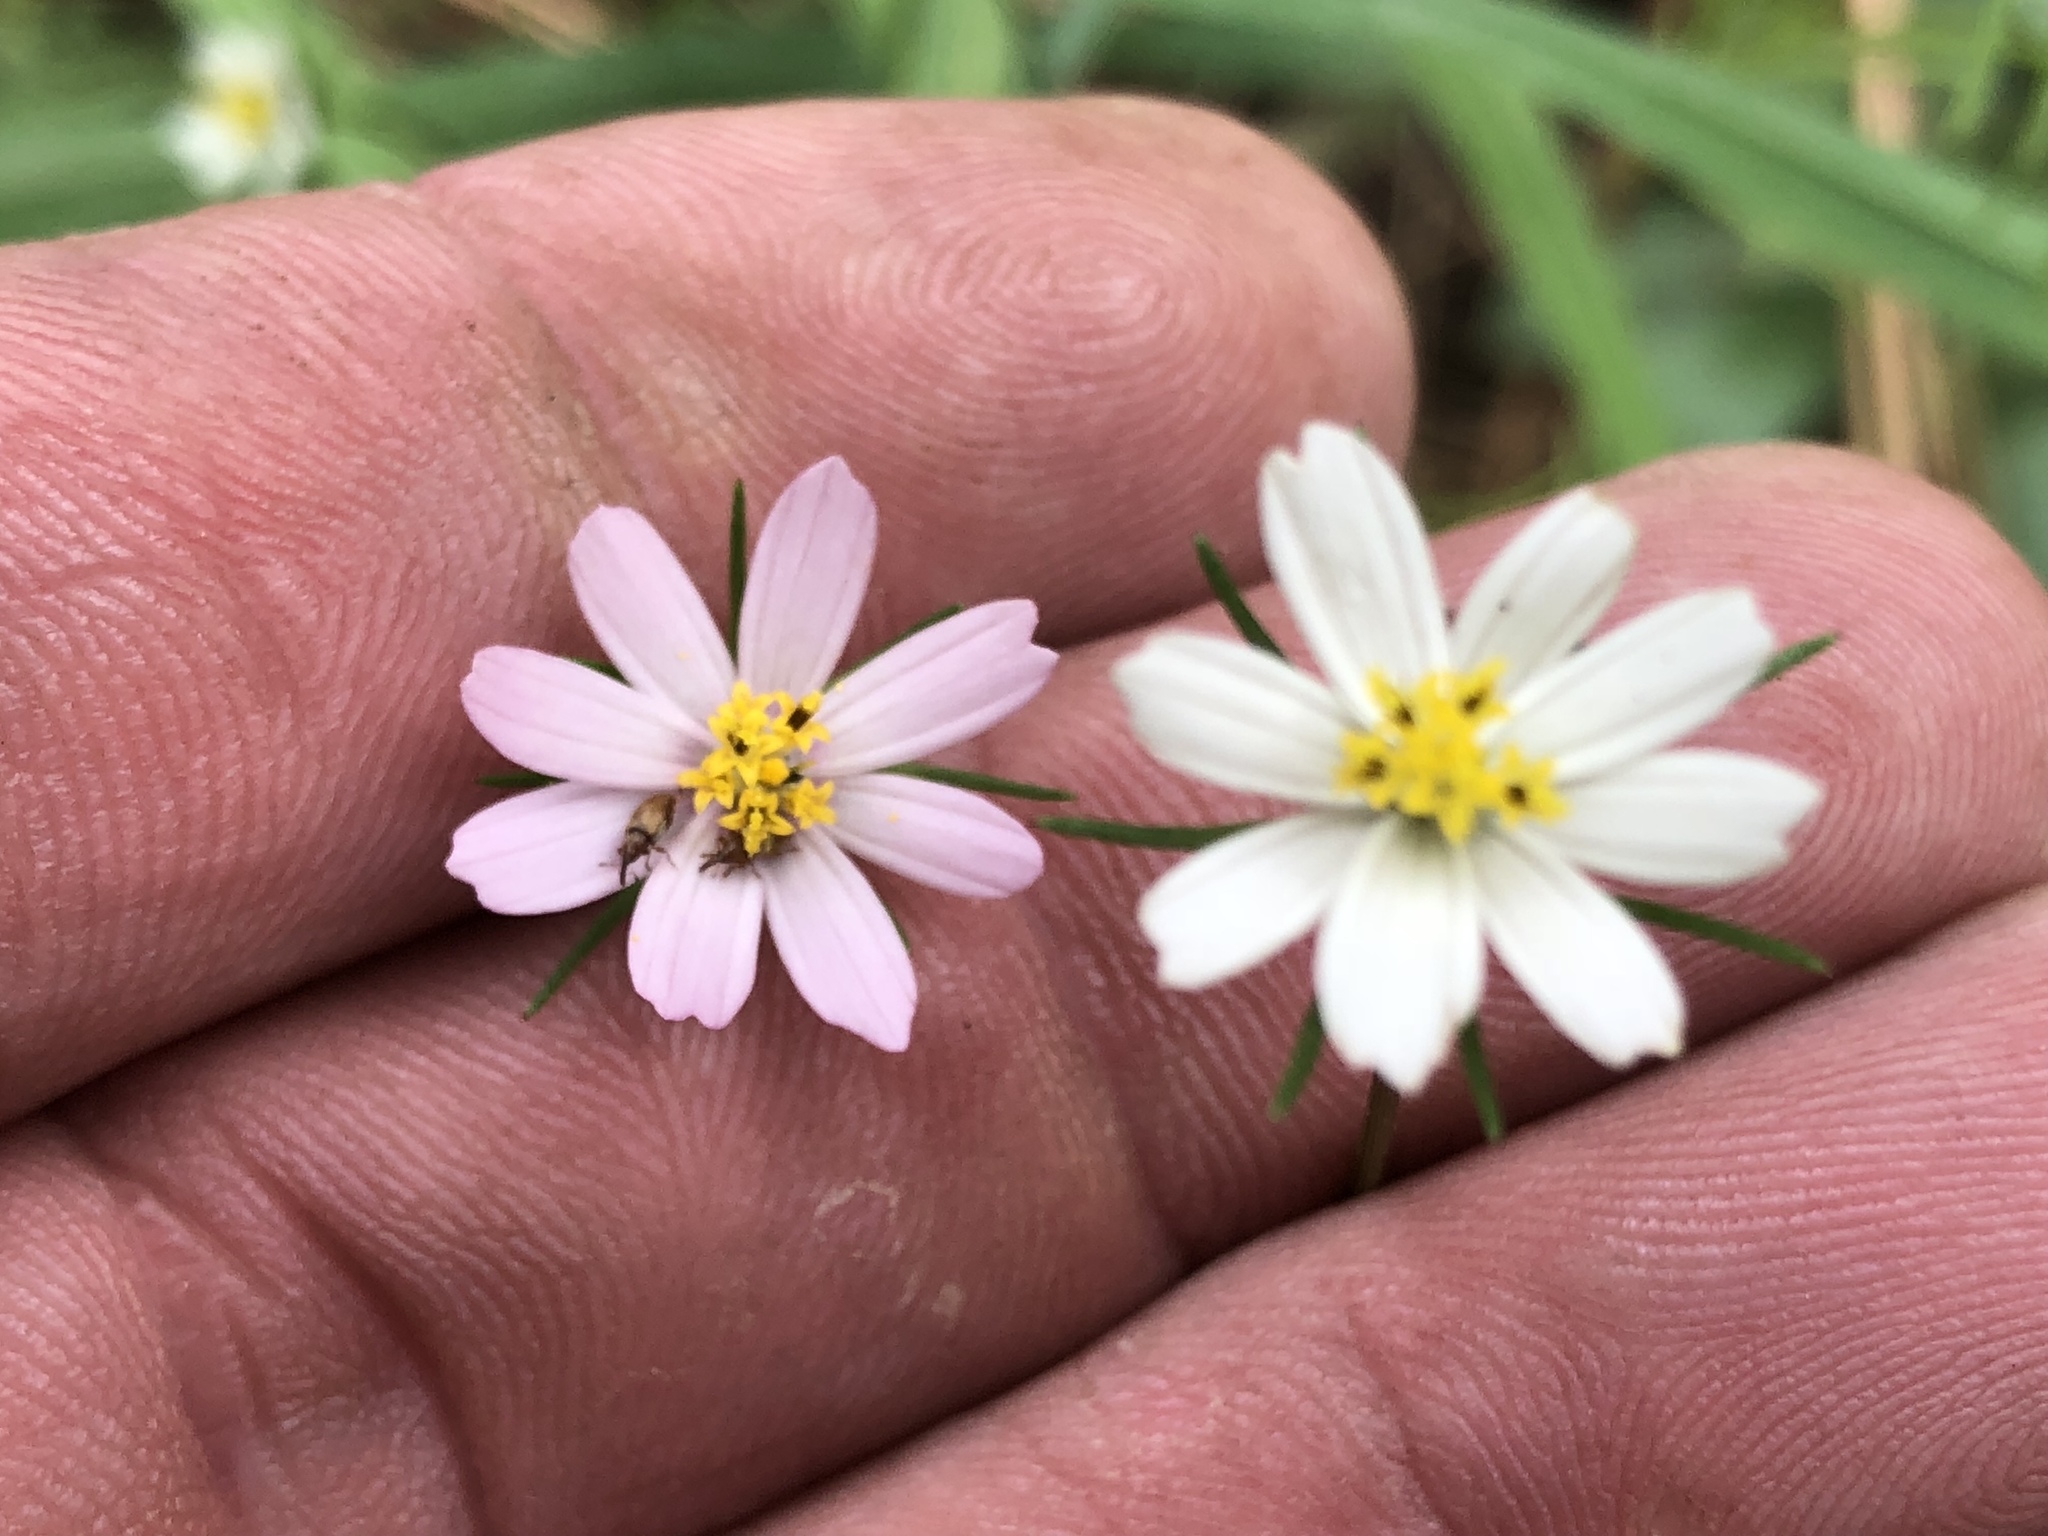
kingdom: Plantae
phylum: Tracheophyta
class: Magnoliopsida
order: Asterales
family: Asteraceae
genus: Cosmos
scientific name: Cosmos parviflorus
